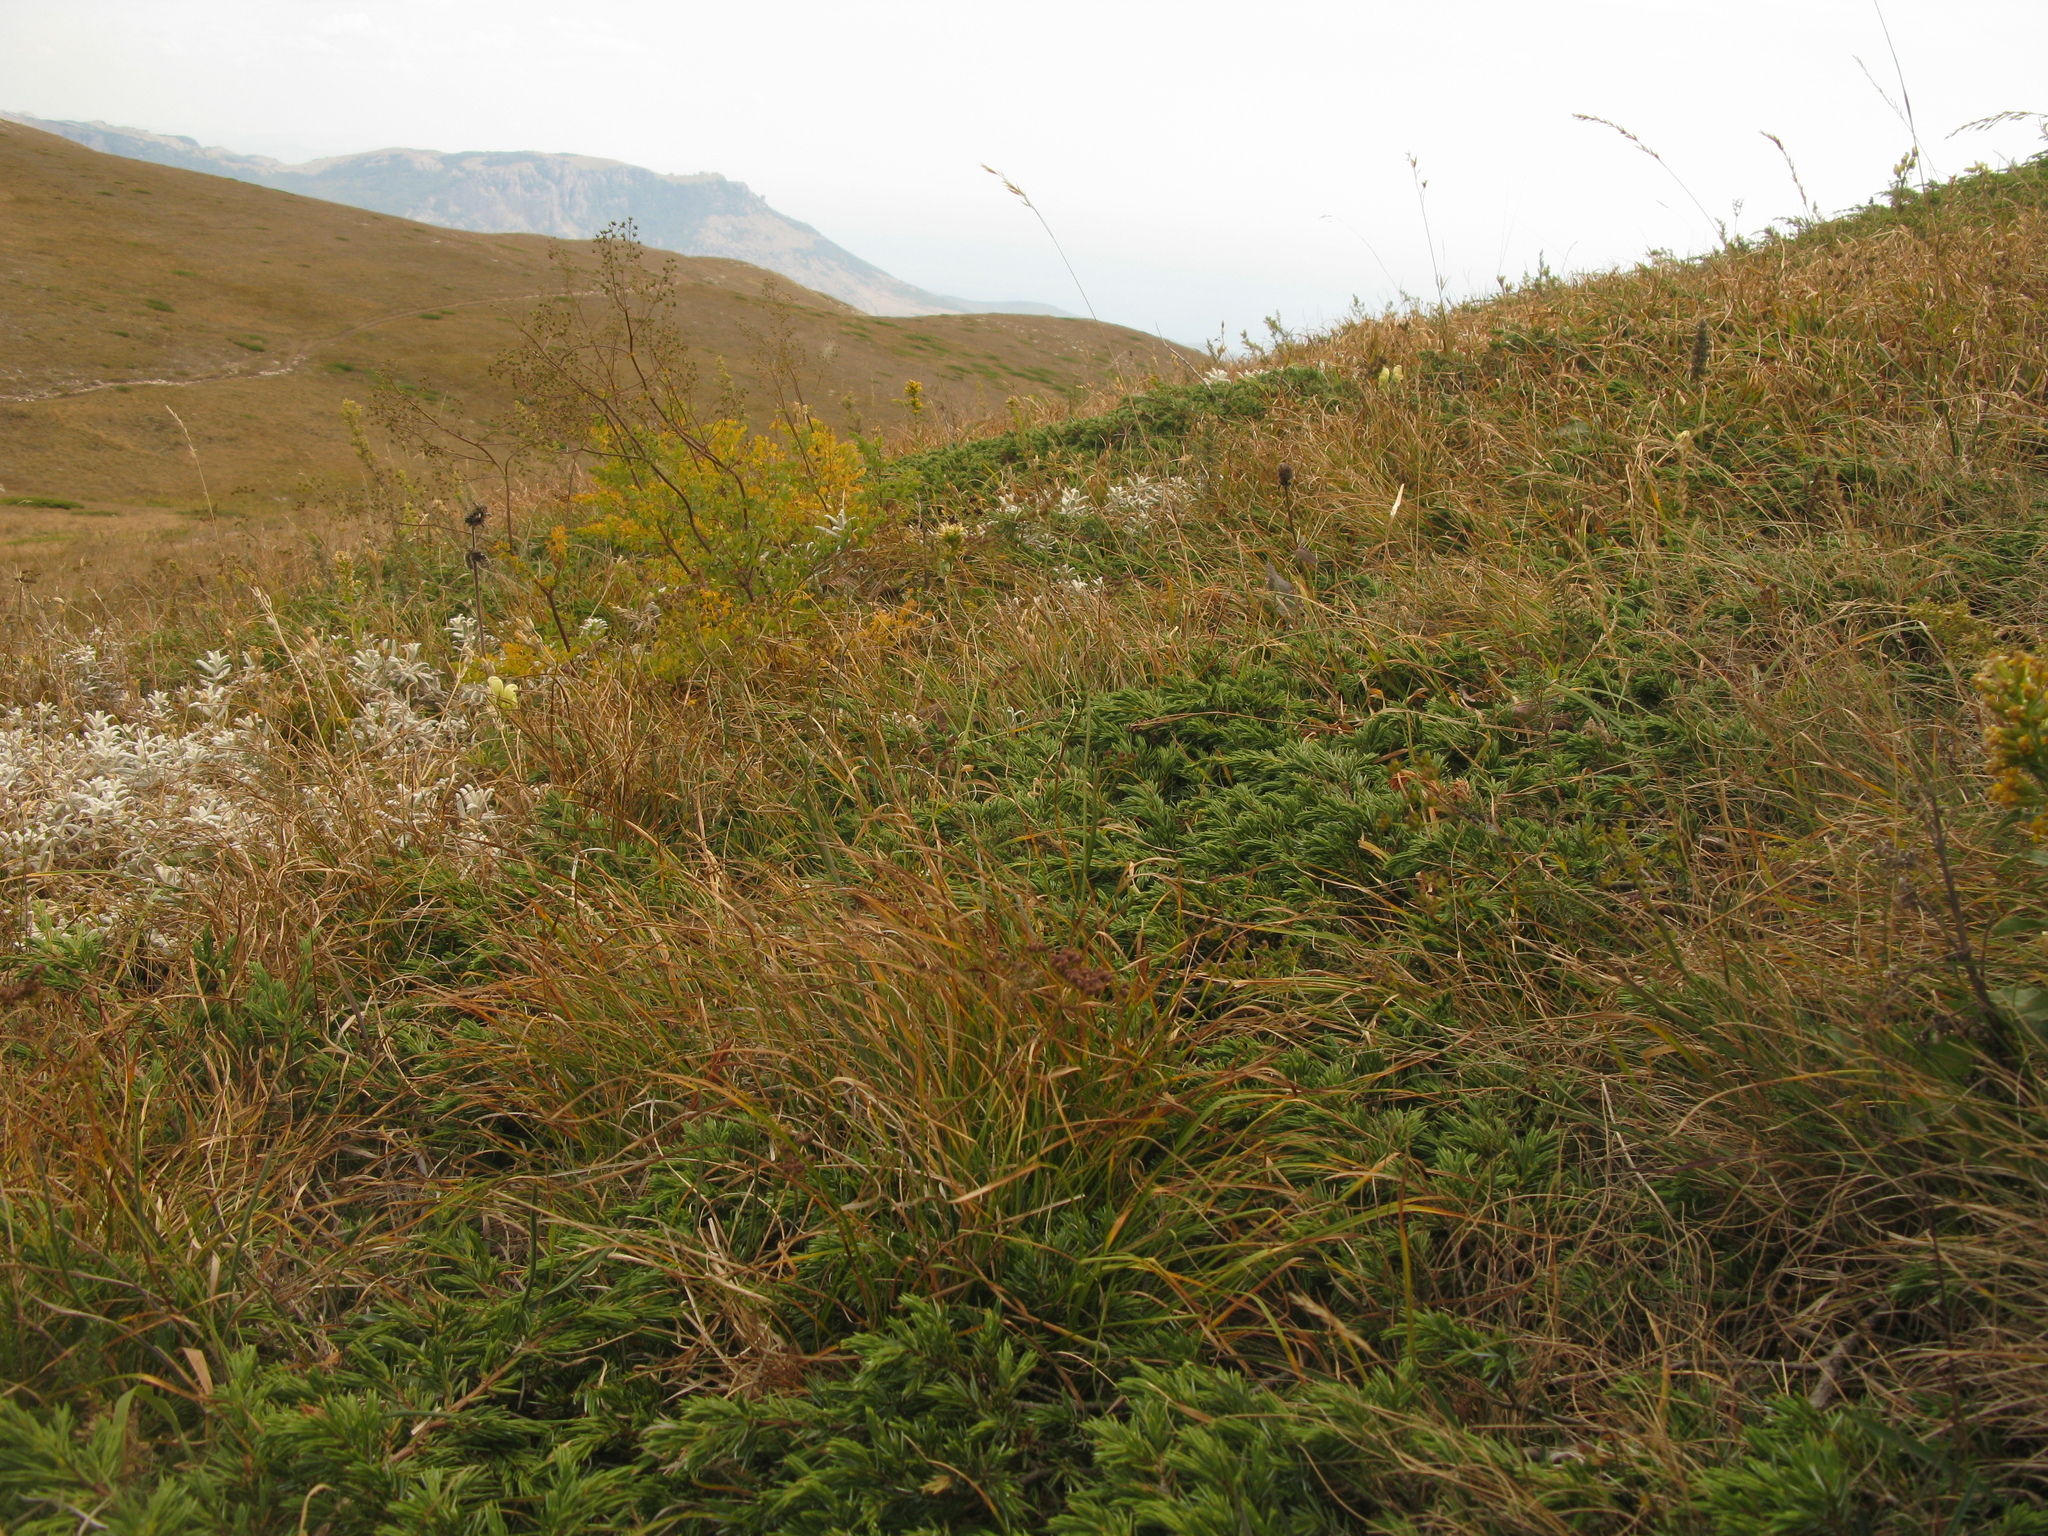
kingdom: Plantae
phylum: Tracheophyta
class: Magnoliopsida
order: Ranunculales
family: Ranunculaceae
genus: Thalictrum
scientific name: Thalictrum minus
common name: Lesser meadow-rue
